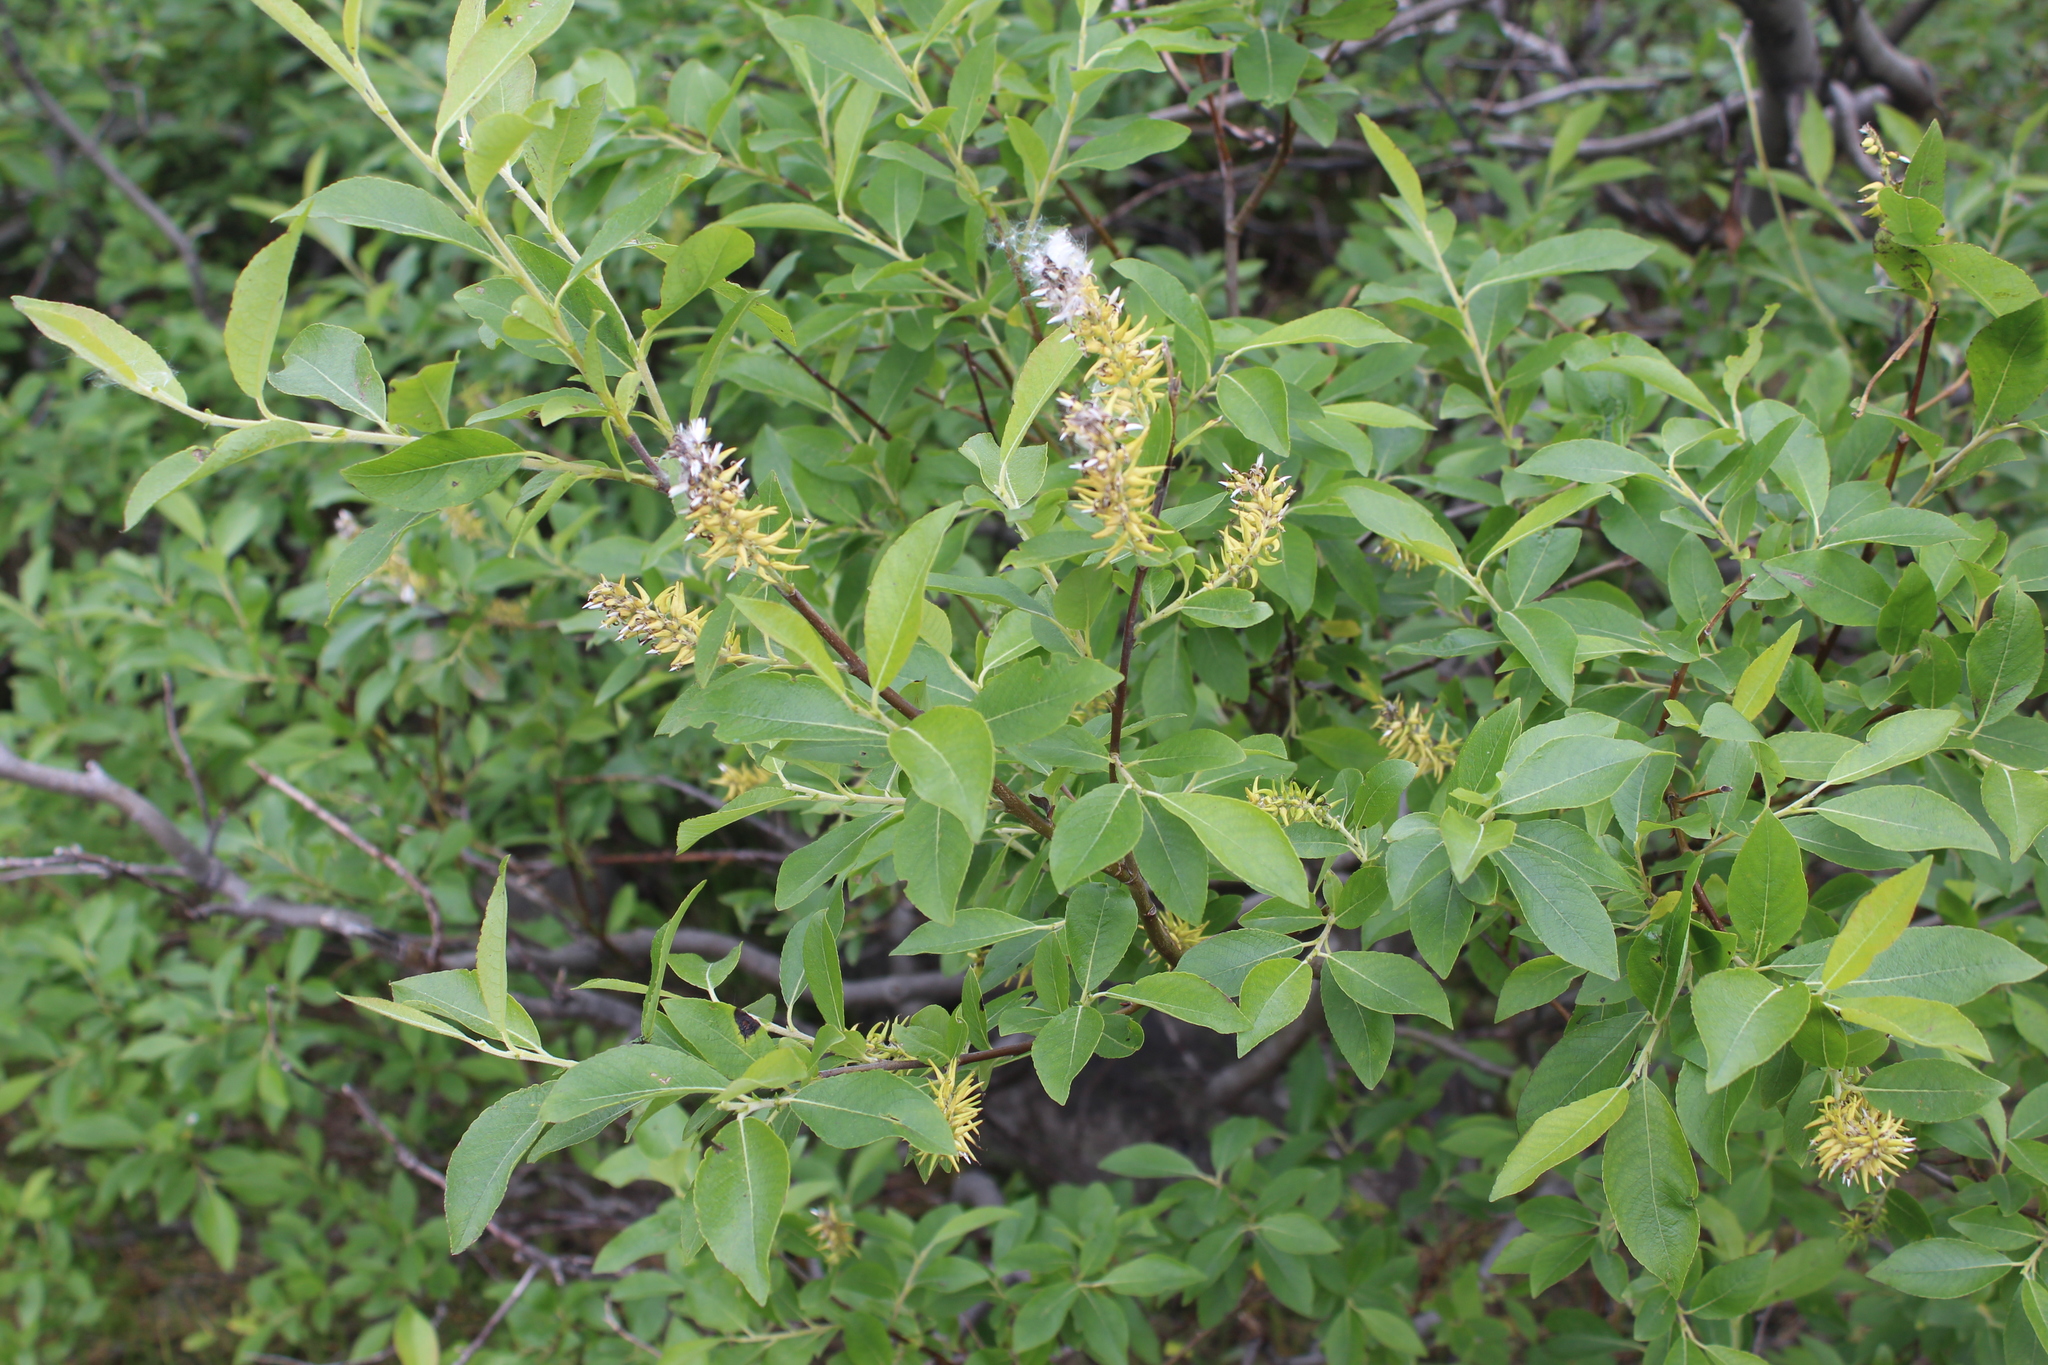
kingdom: Plantae
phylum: Tracheophyta
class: Magnoliopsida
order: Malpighiales
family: Salicaceae
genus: Salix
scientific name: Salix myrsinifolia
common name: Dark-leaved willow
